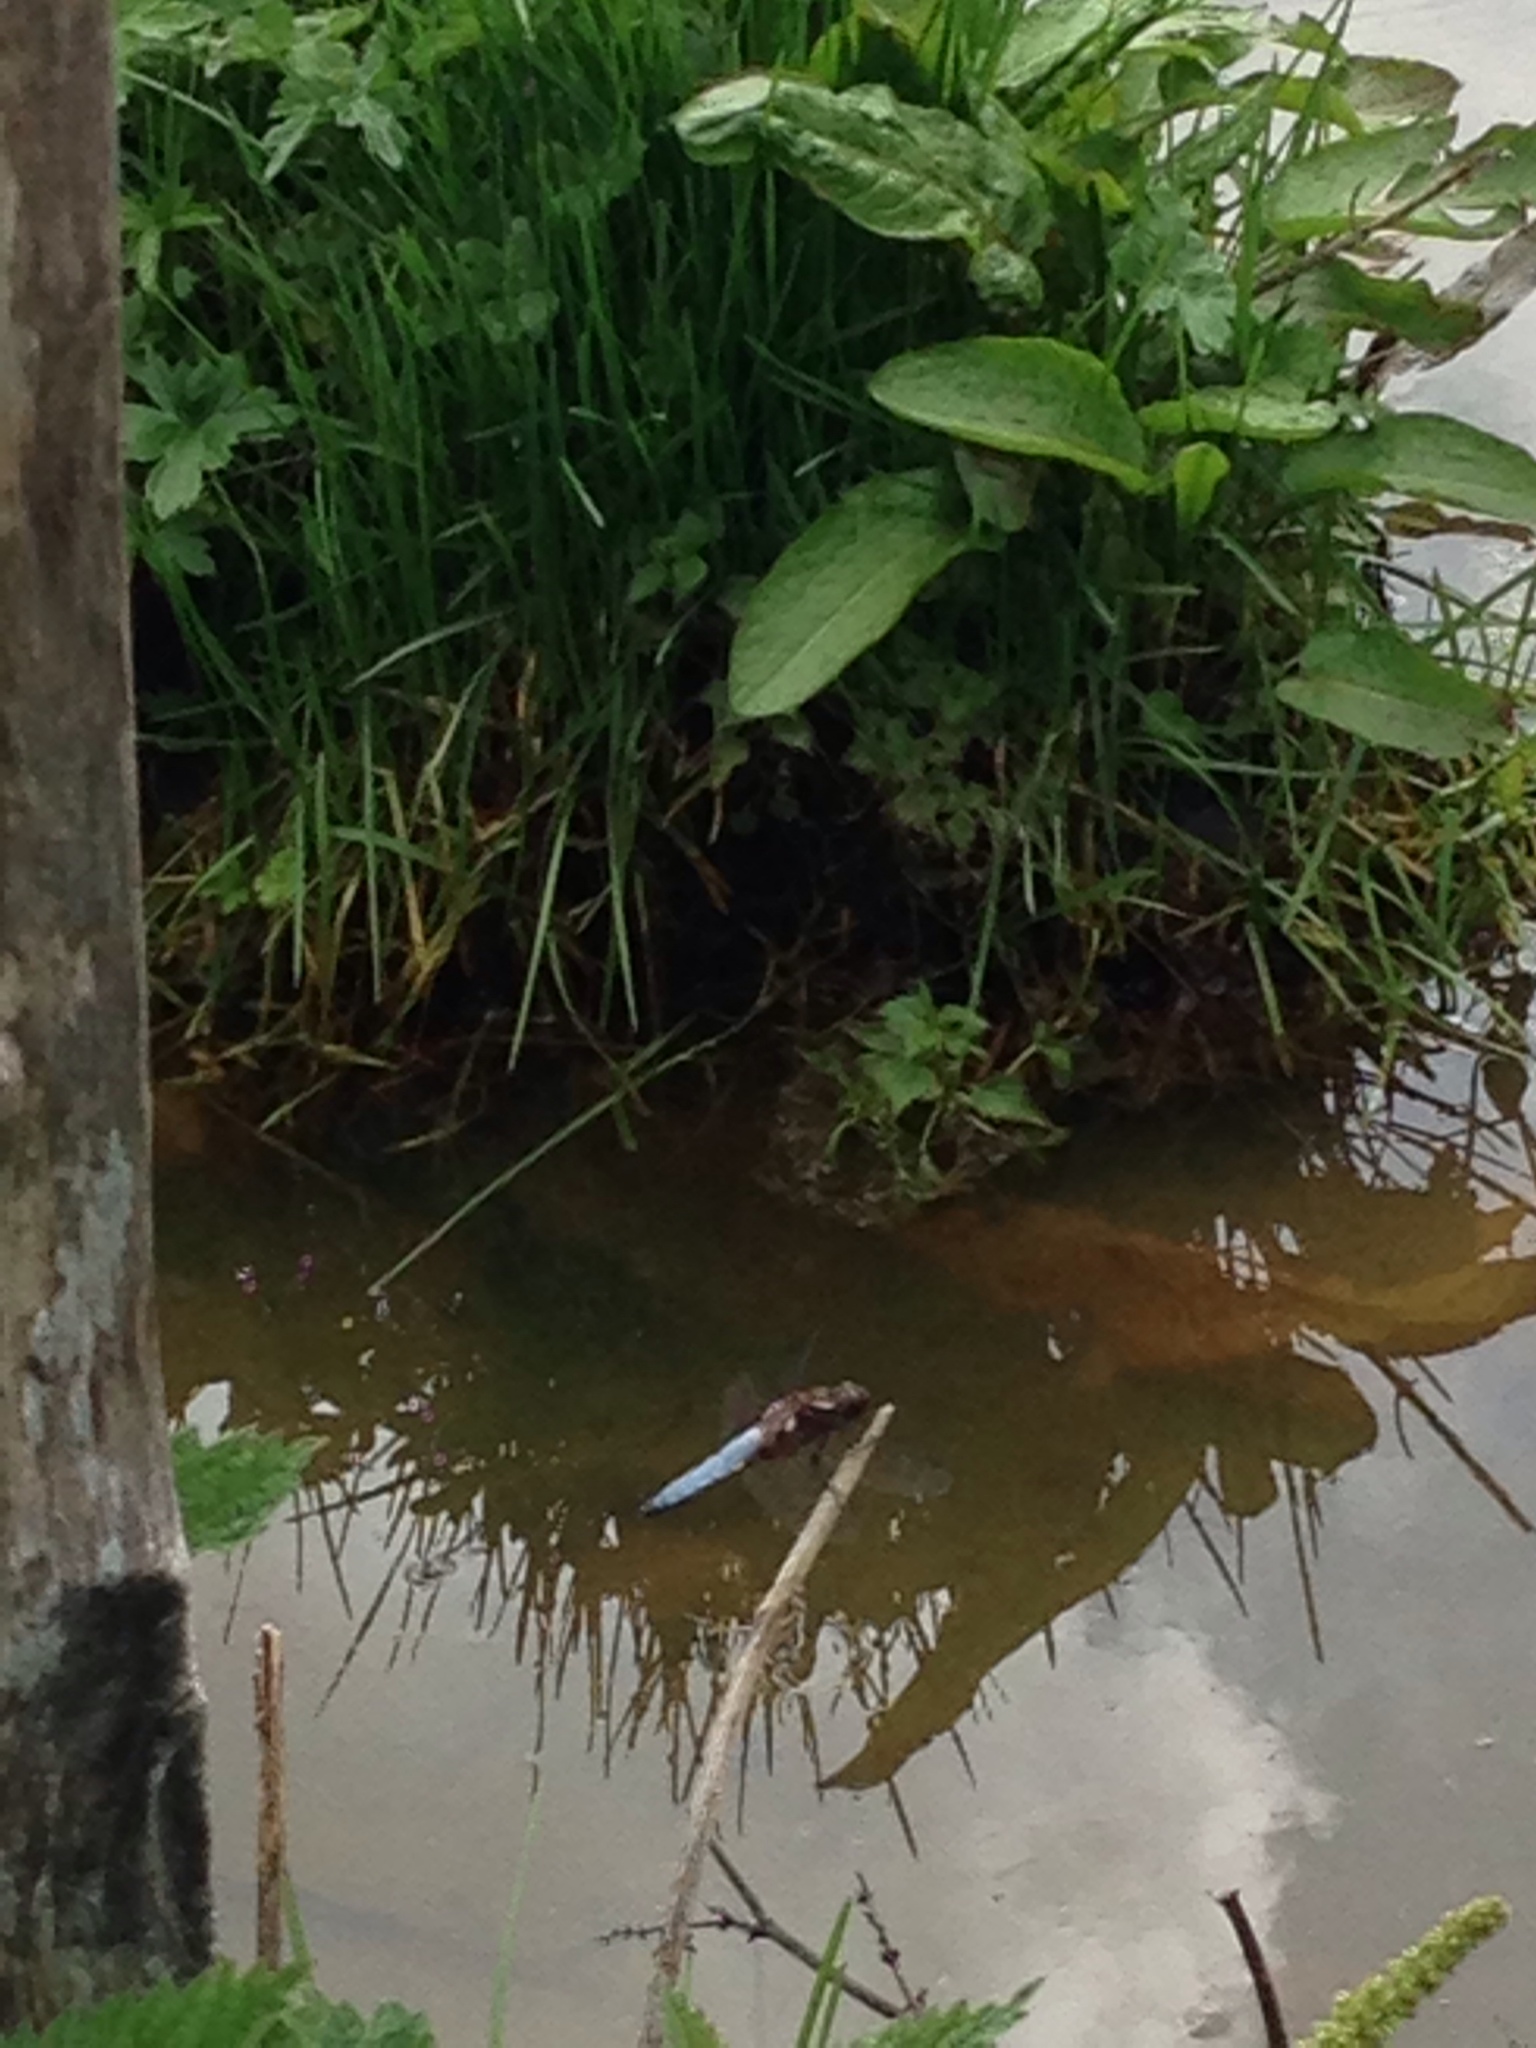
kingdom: Animalia
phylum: Arthropoda
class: Insecta
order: Odonata
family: Libellulidae
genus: Libellula
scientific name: Libellula depressa
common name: Broad-bodied chaser
